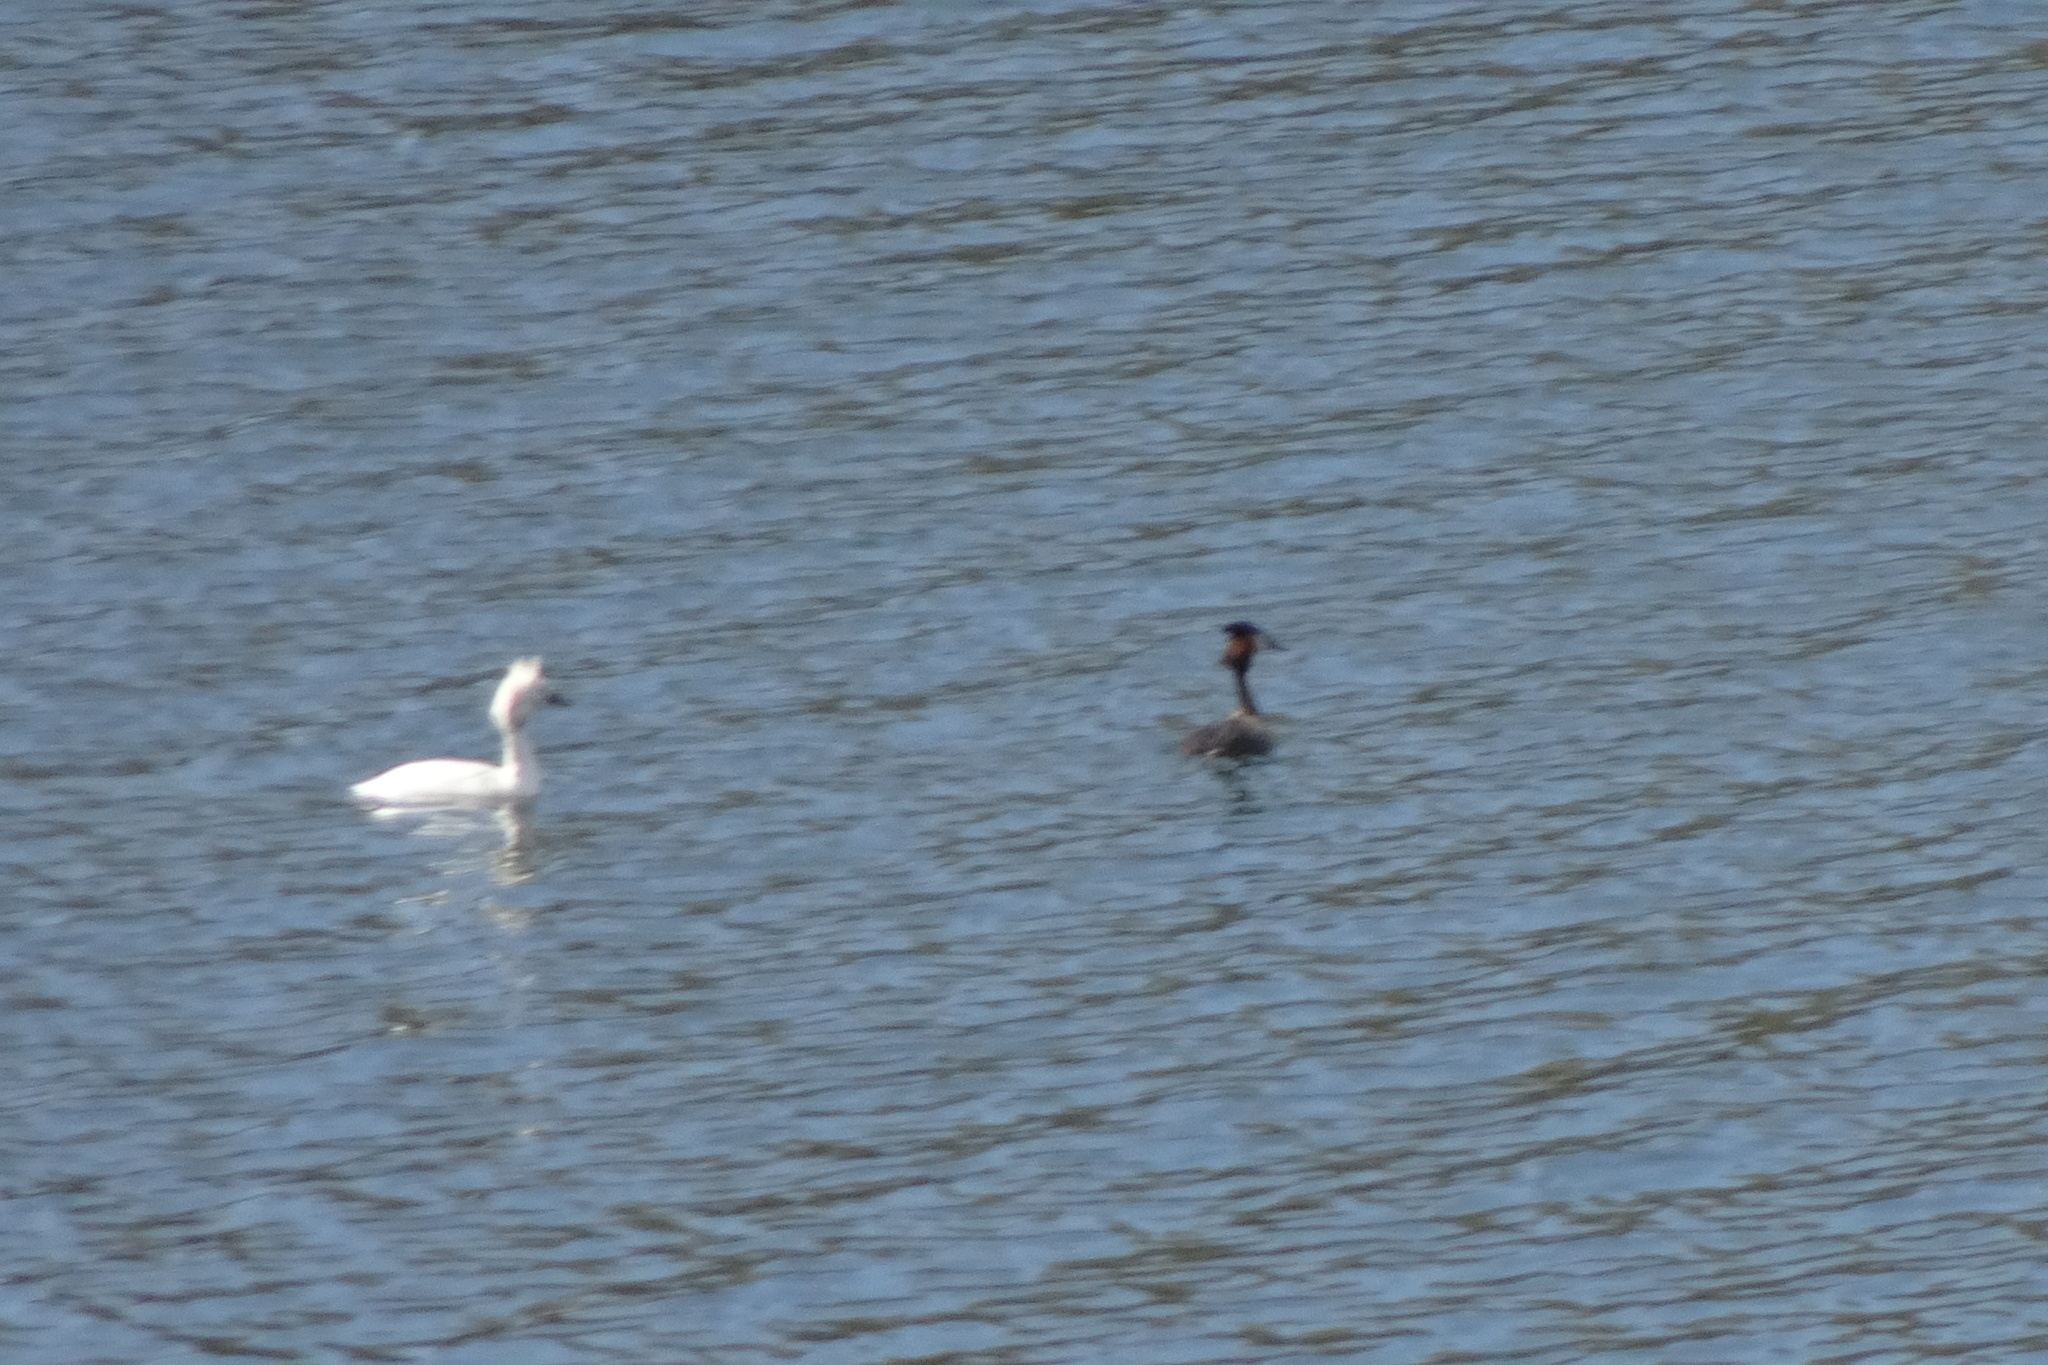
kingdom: Animalia
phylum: Chordata
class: Aves
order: Podicipediformes
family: Podicipedidae
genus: Podiceps
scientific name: Podiceps cristatus
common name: Great crested grebe
